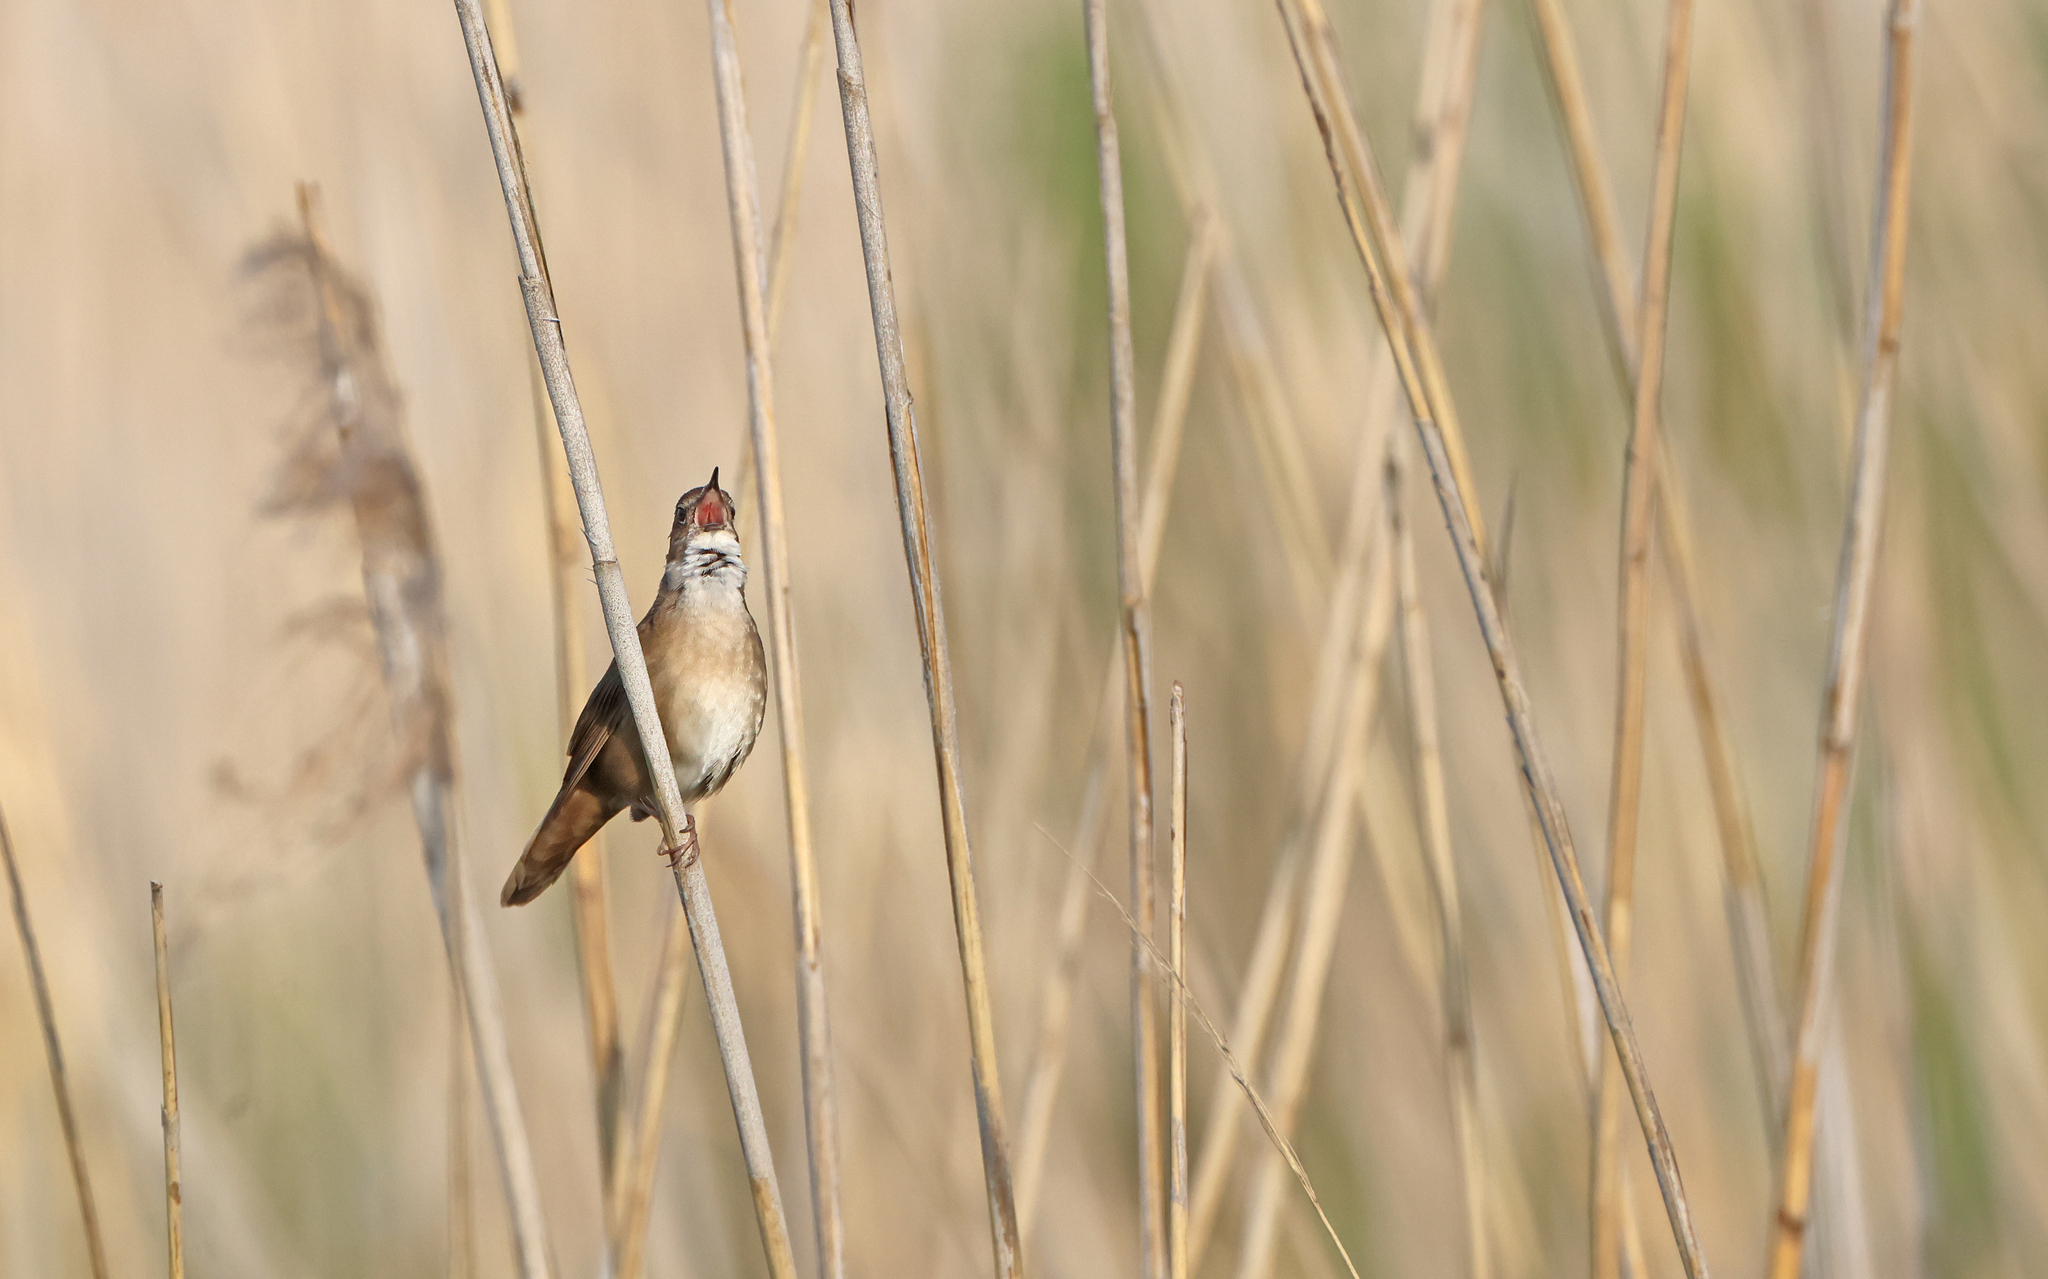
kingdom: Animalia
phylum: Chordata
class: Aves
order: Passeriformes
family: Locustellidae
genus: Locustella
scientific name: Locustella luscinioides
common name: Savi's warbler
